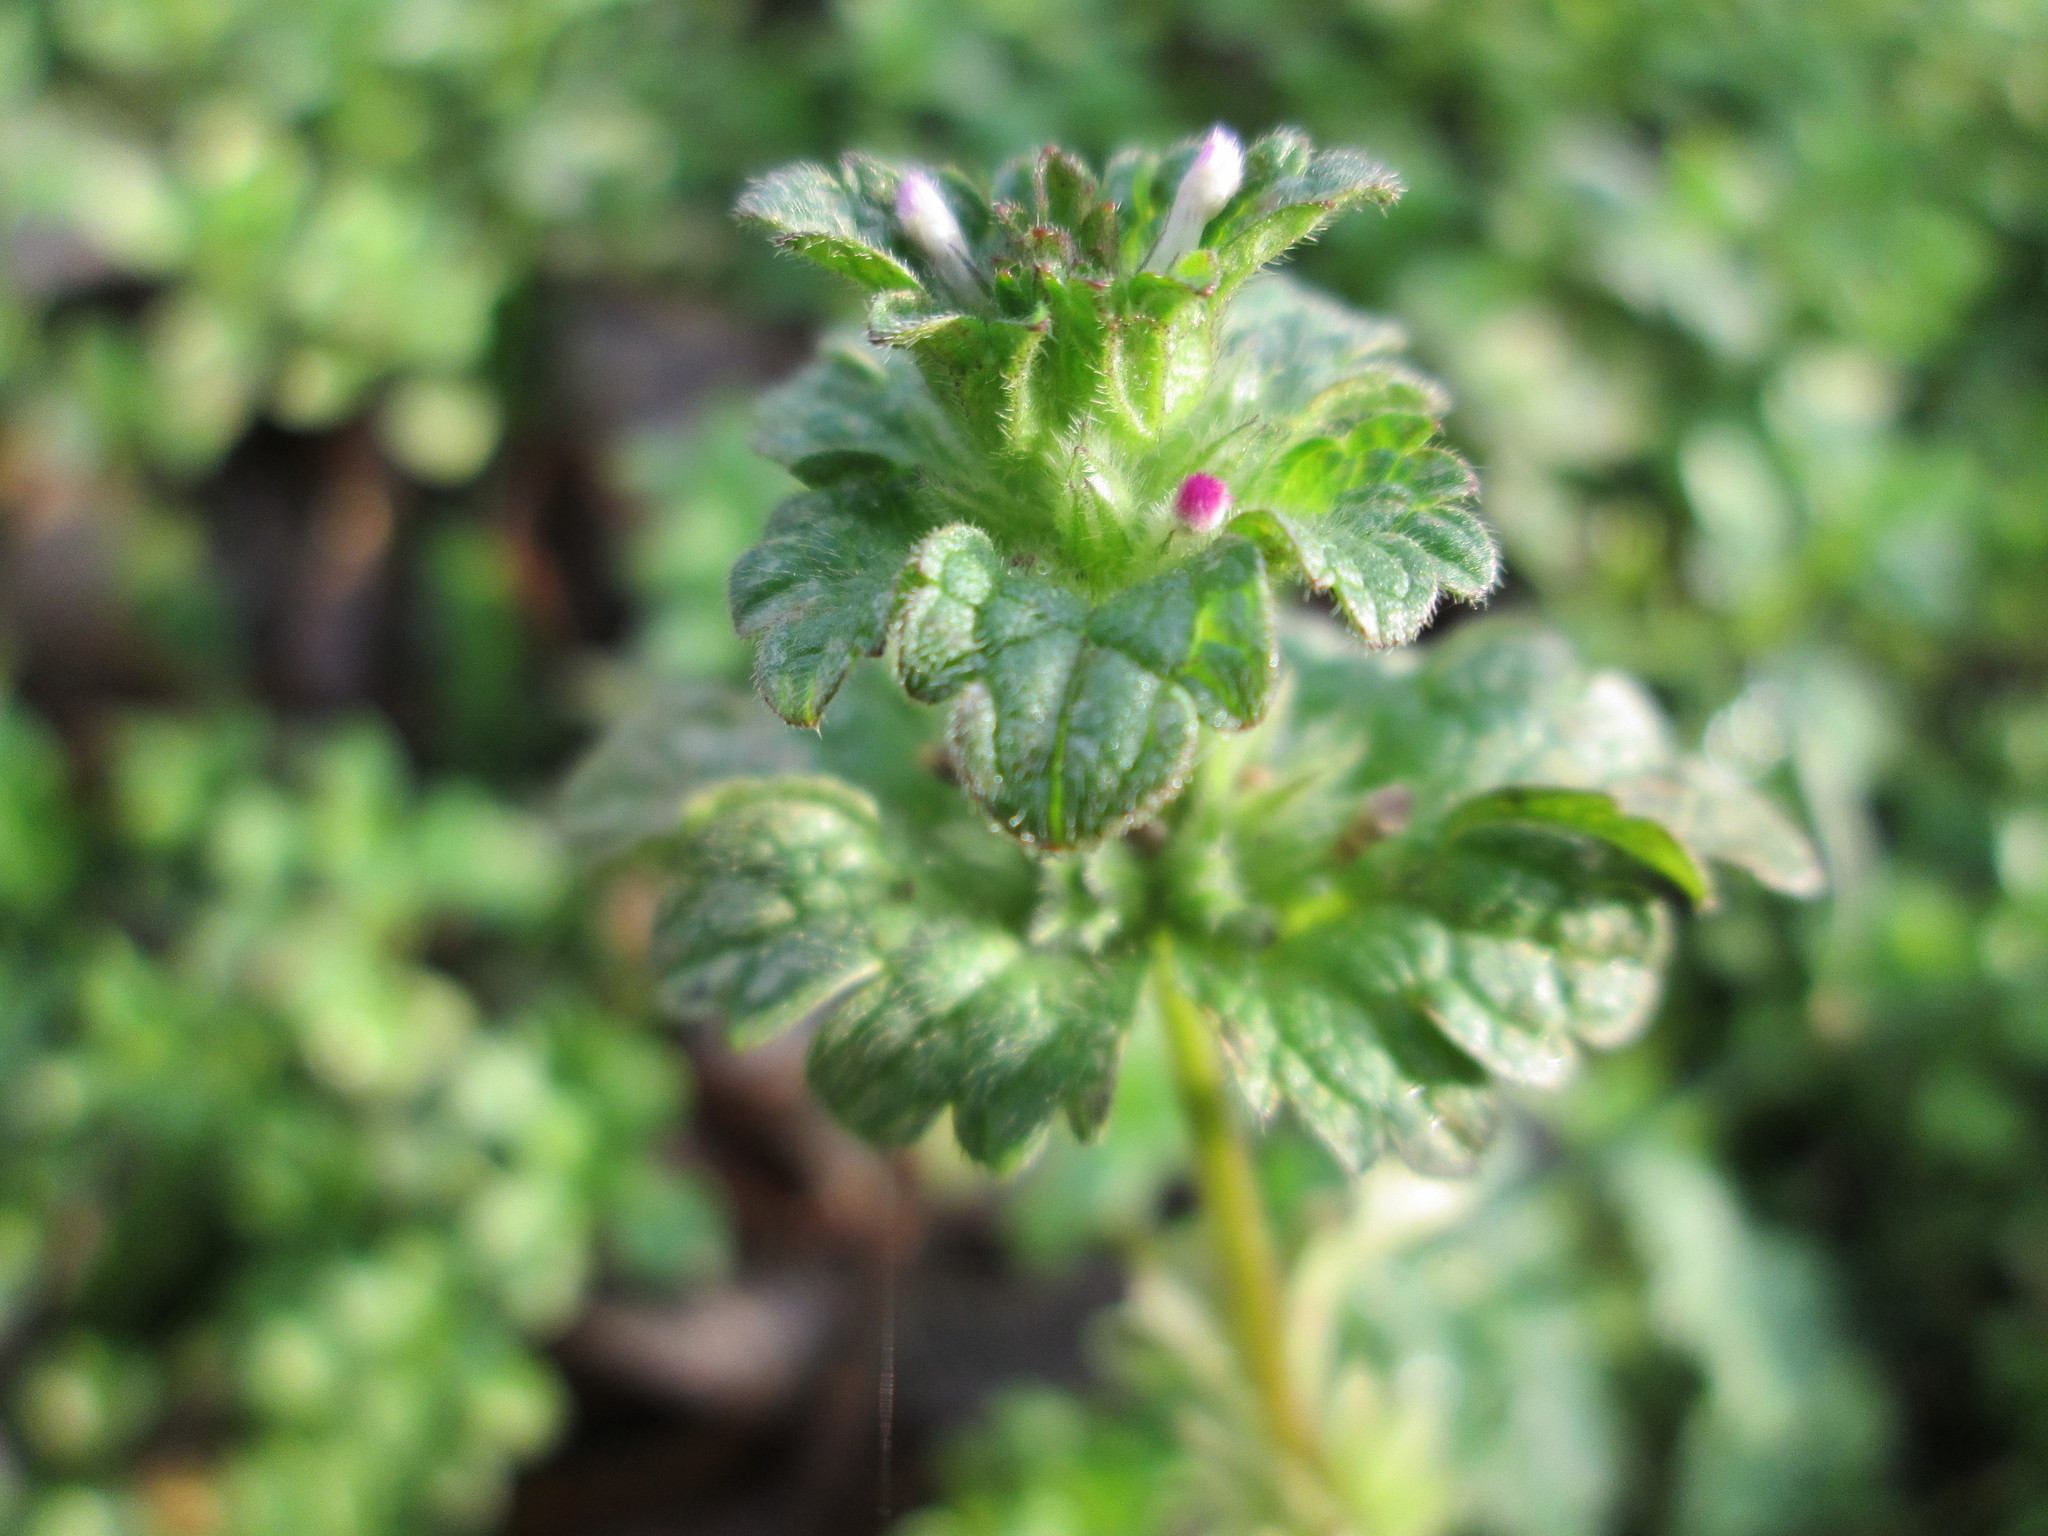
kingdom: Plantae
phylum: Tracheophyta
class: Magnoliopsida
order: Lamiales
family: Lamiaceae
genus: Lamium
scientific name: Lamium amplexicaule
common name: Henbit dead-nettle
